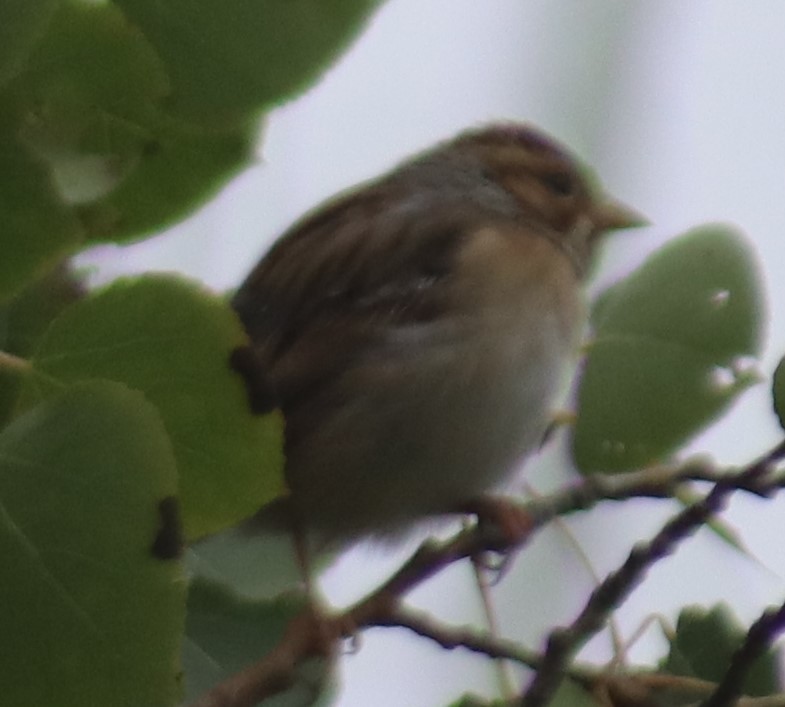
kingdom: Animalia
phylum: Chordata
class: Aves
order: Passeriformes
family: Passerellidae
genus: Spizella
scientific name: Spizella pallida
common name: Clay-colored sparrow
